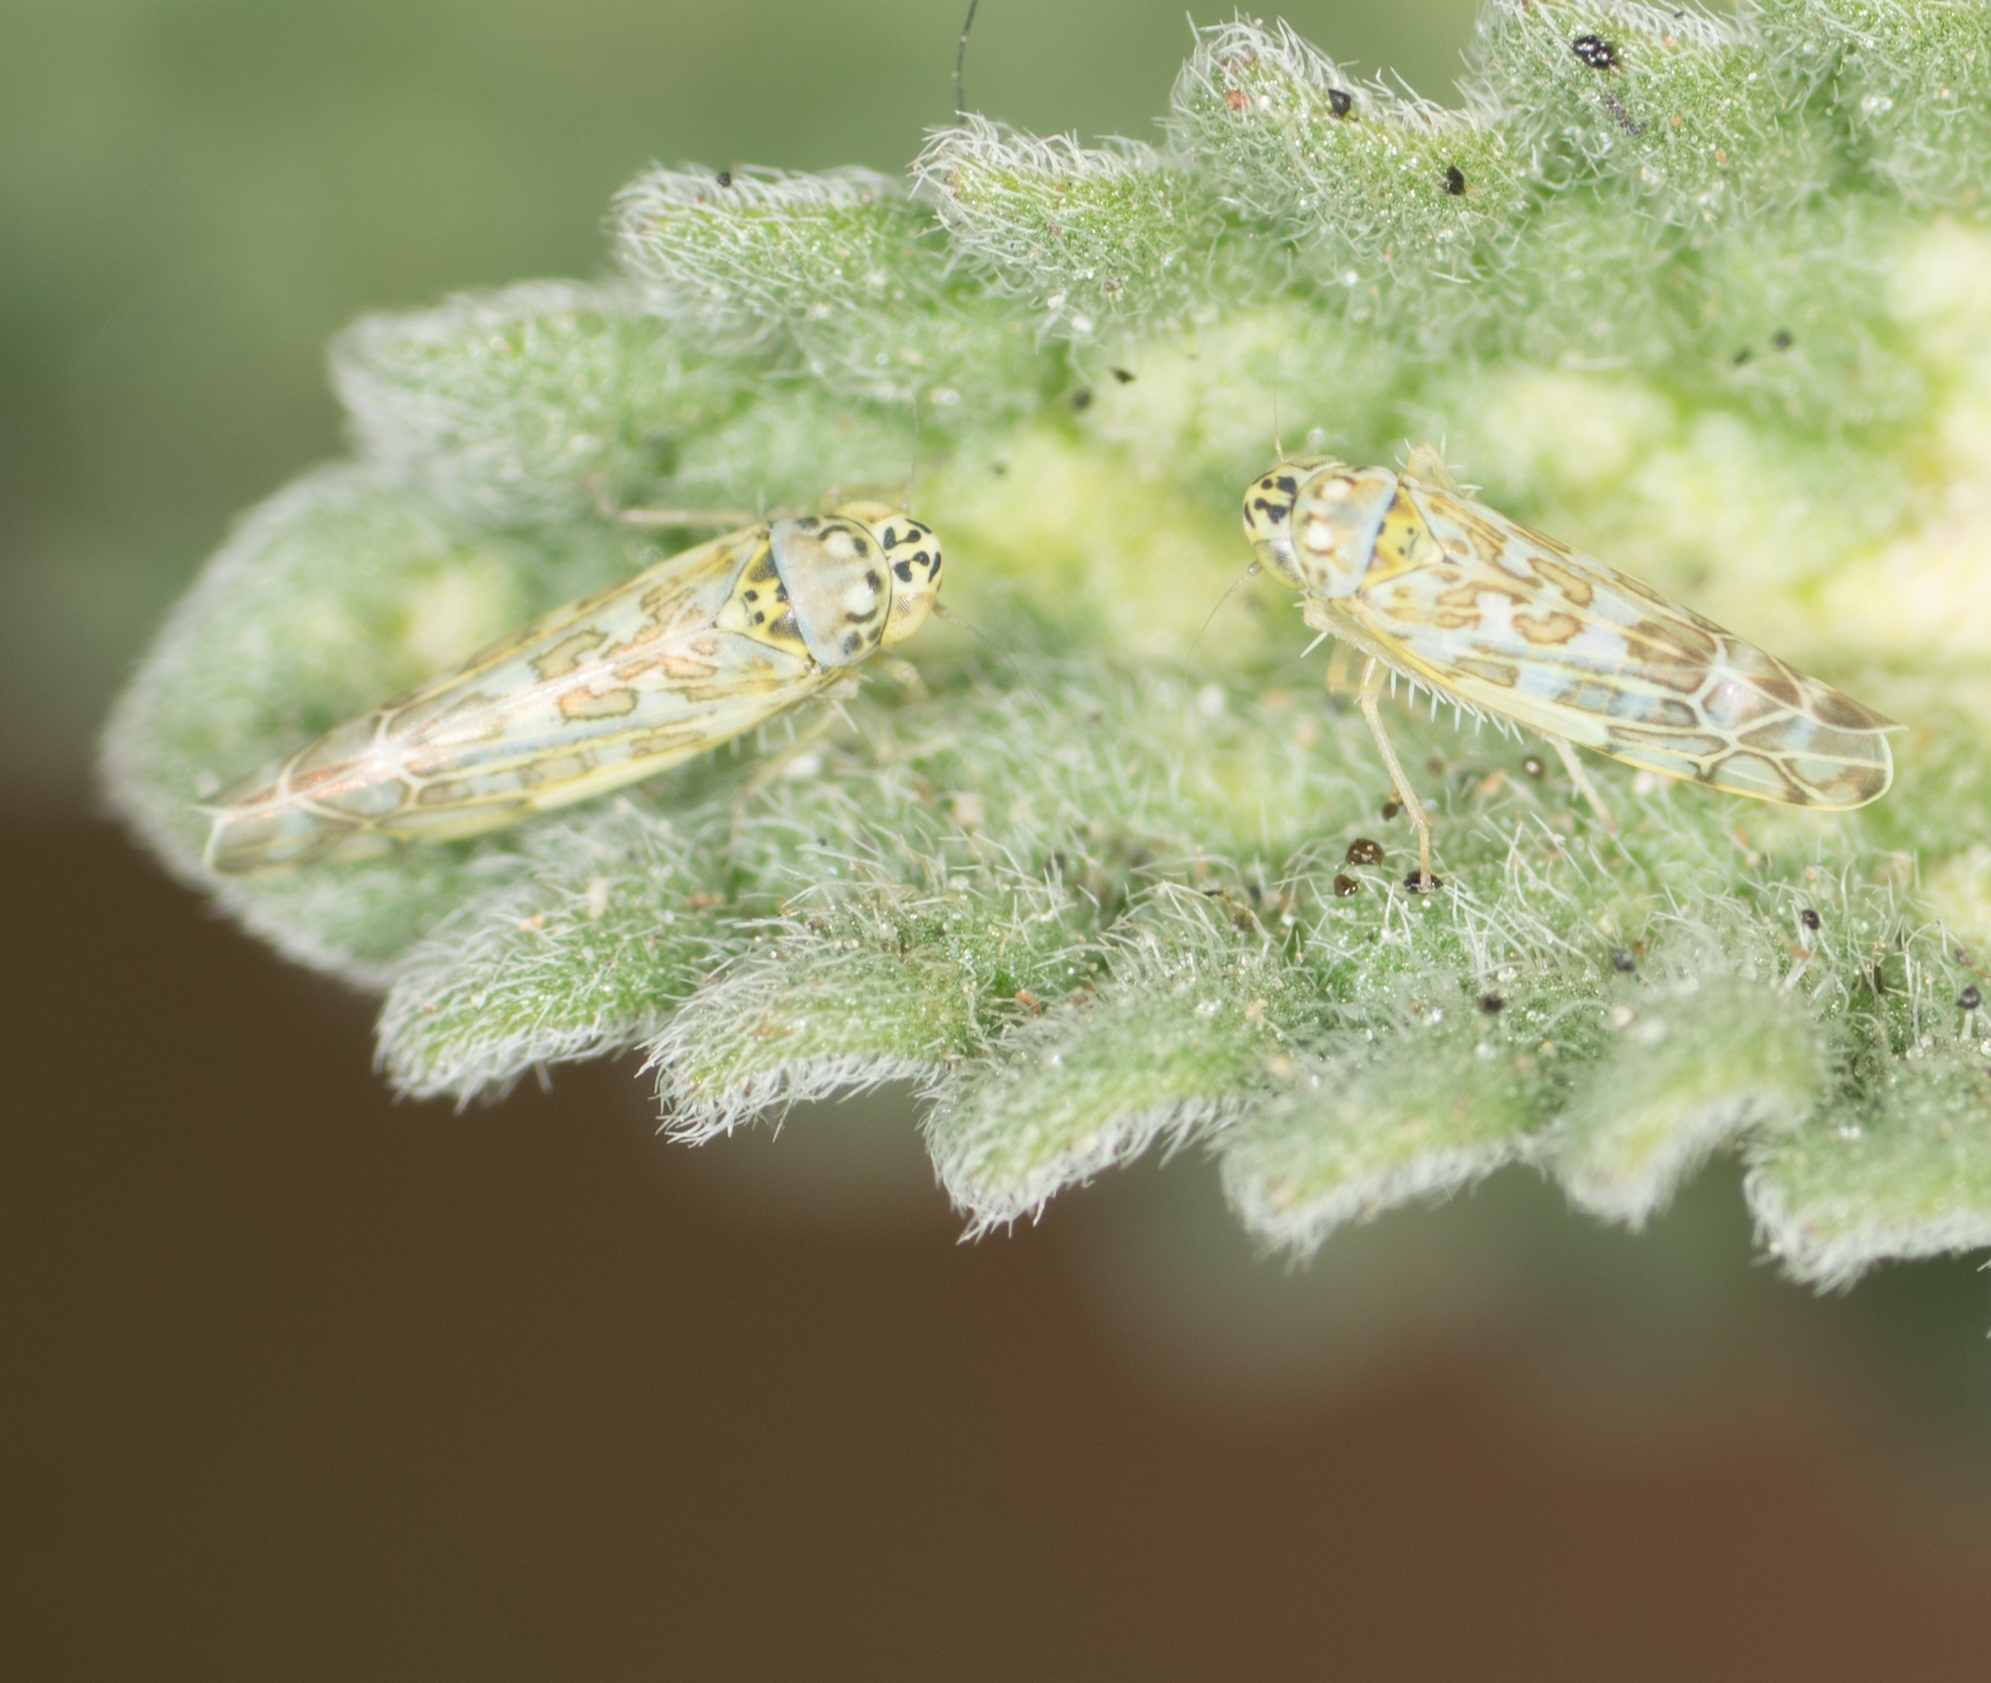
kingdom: Animalia
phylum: Arthropoda
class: Insecta
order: Hemiptera
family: Cicadellidae
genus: Eupteryx
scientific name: Eupteryx decemnotata
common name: Ligurian leafhopper
